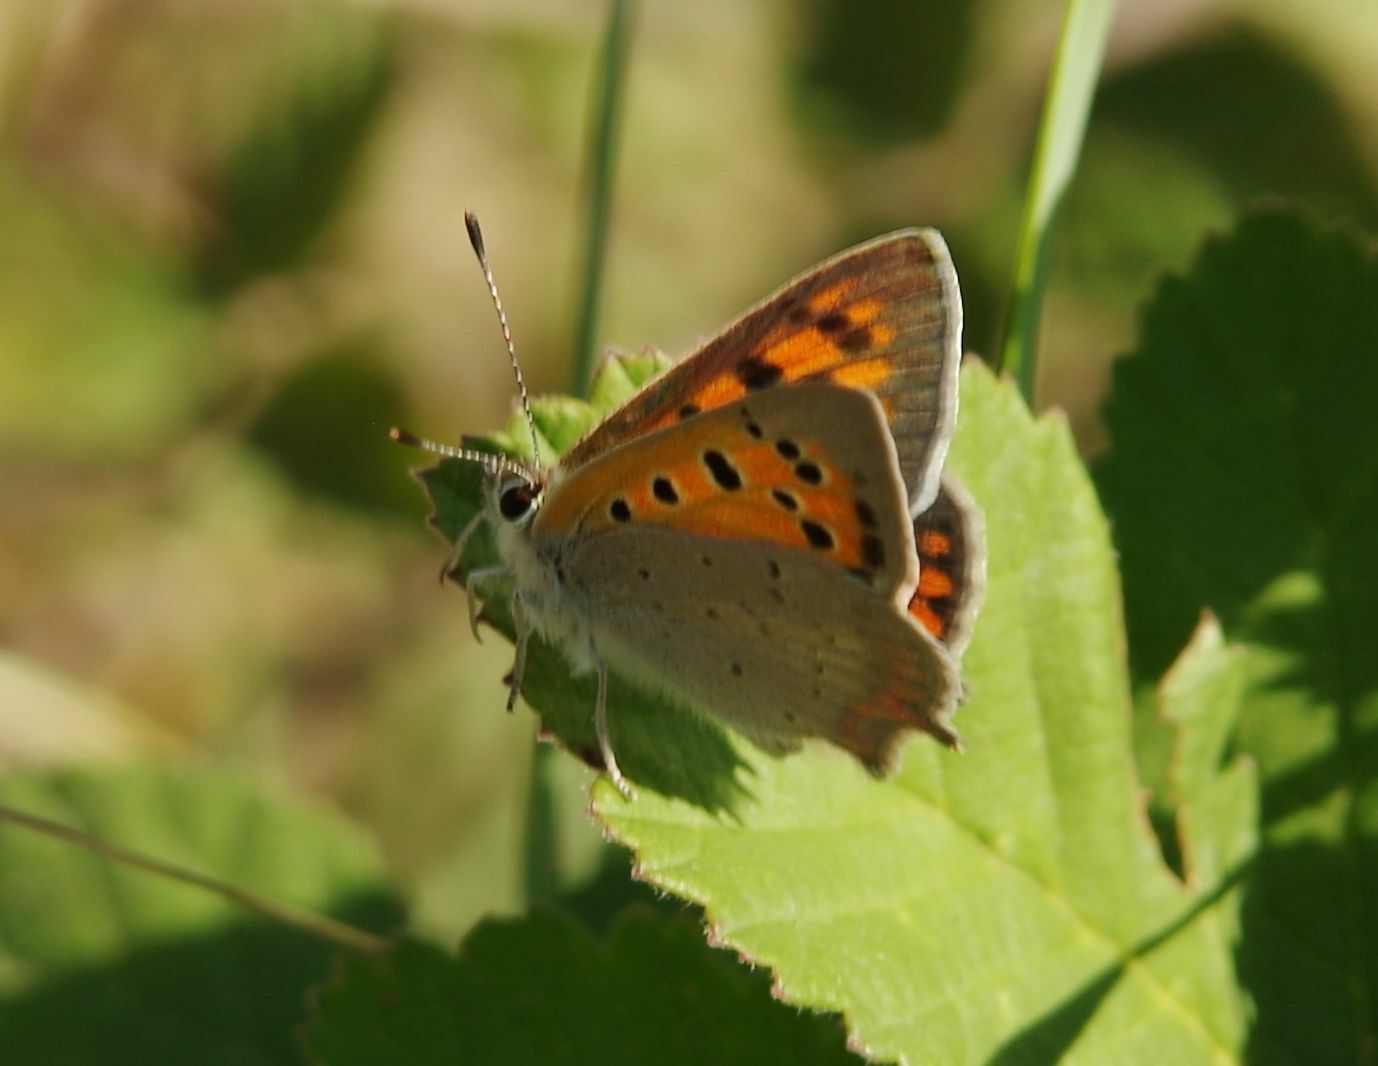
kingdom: Animalia
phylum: Arthropoda
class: Insecta
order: Lepidoptera
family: Lycaenidae
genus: Lycaena
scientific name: Lycaena phlaeas
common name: Small copper
